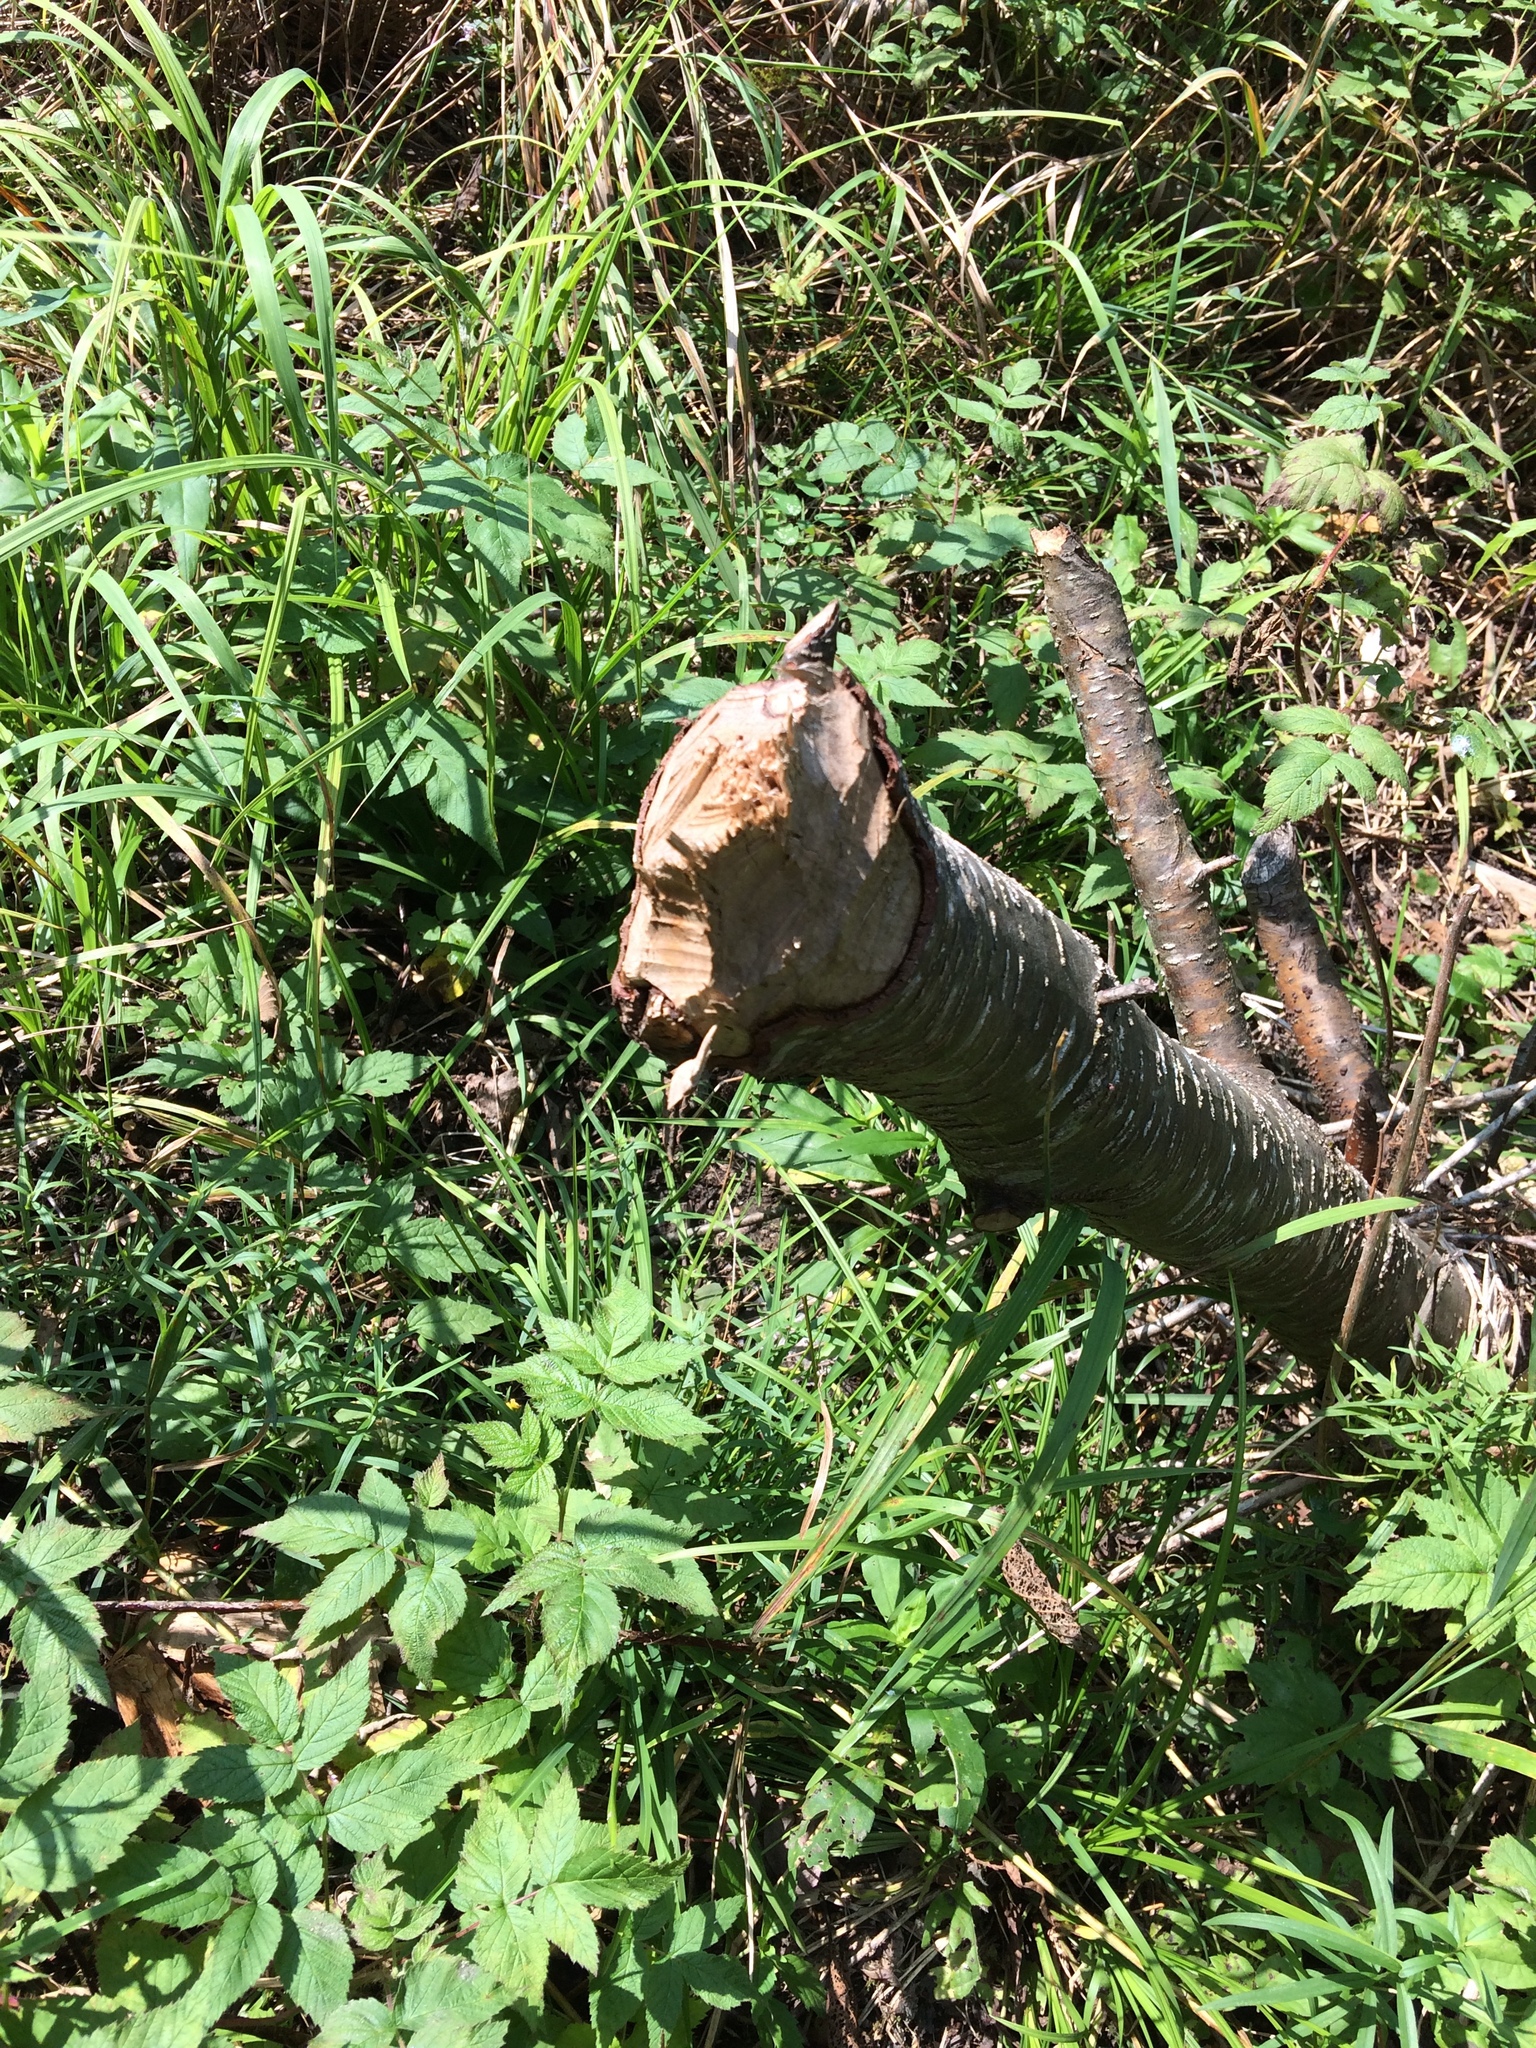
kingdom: Animalia
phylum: Chordata
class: Mammalia
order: Rodentia
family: Castoridae
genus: Castor
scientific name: Castor canadensis
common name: American beaver
